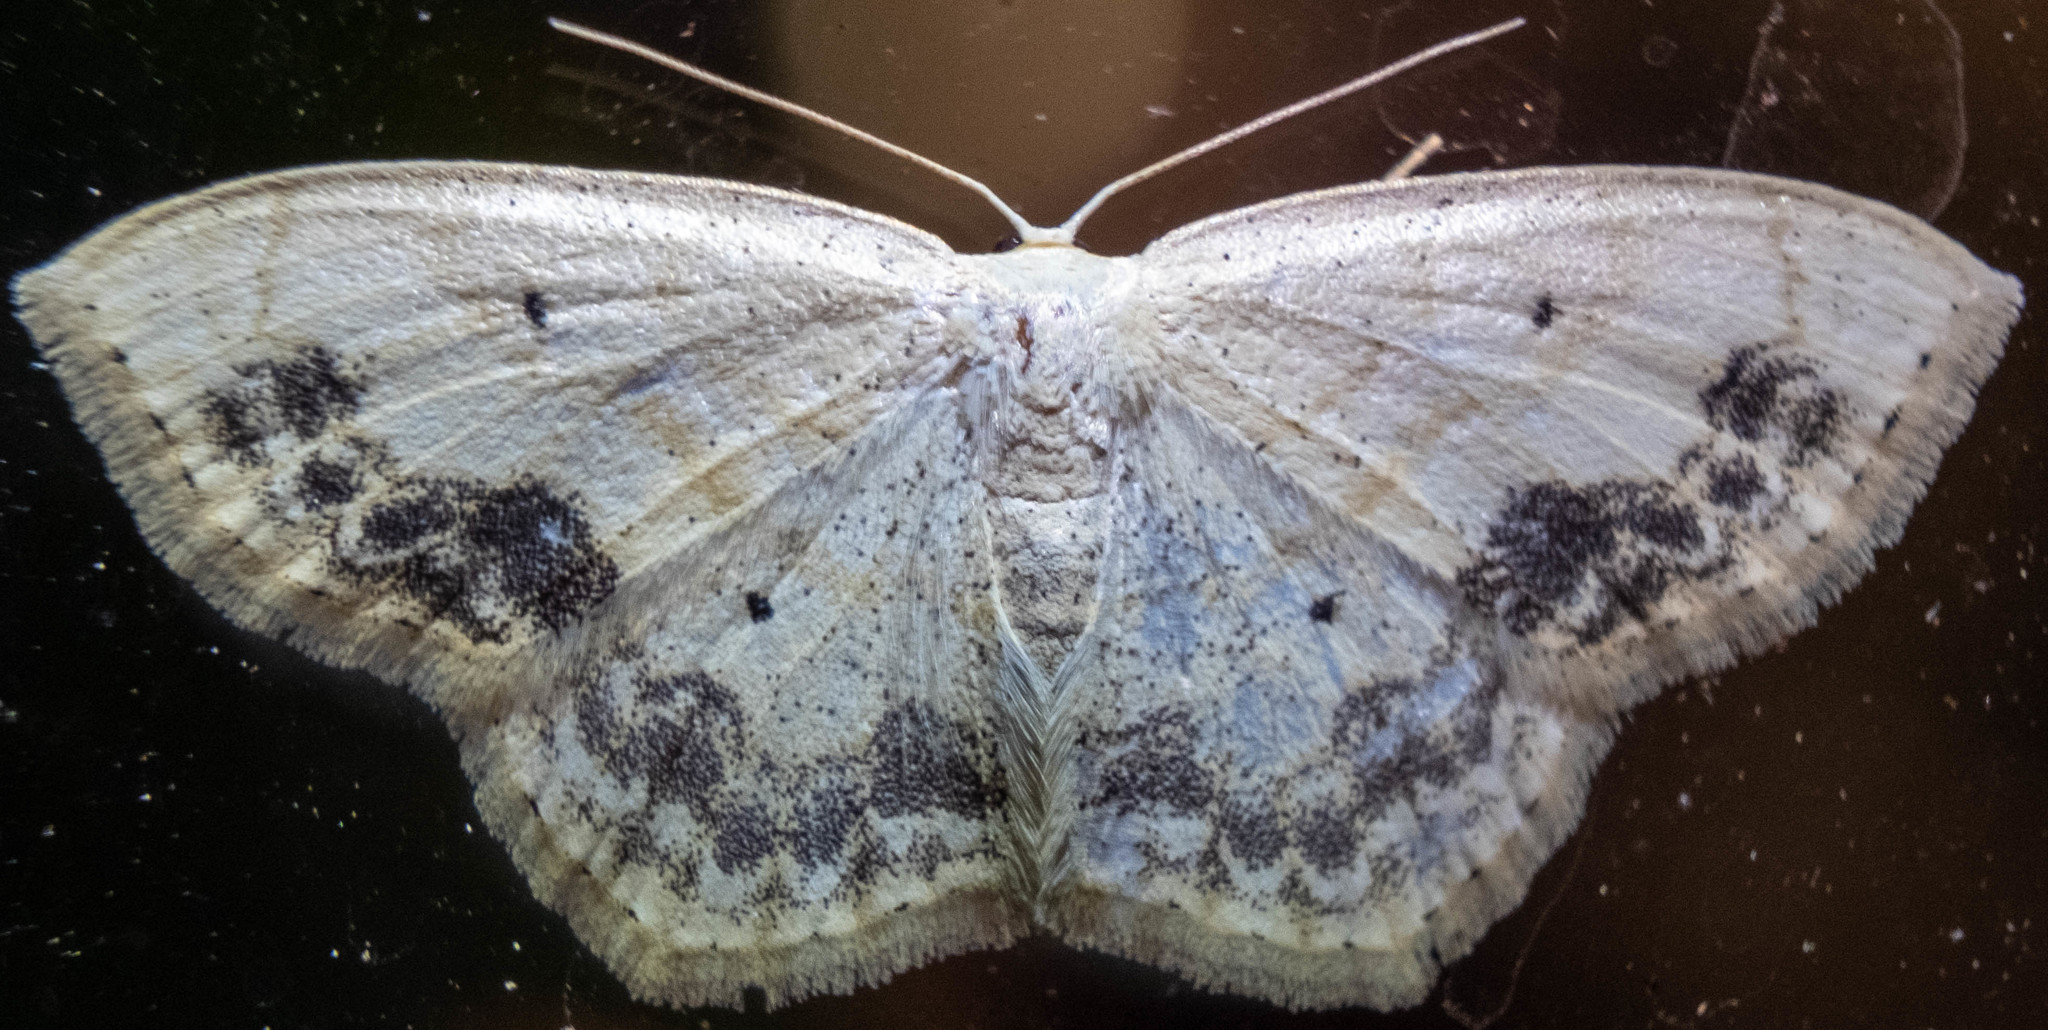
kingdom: Animalia
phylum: Arthropoda
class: Insecta
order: Lepidoptera
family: Geometridae
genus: Scopula
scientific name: Scopula limboundata
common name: Large lace border
